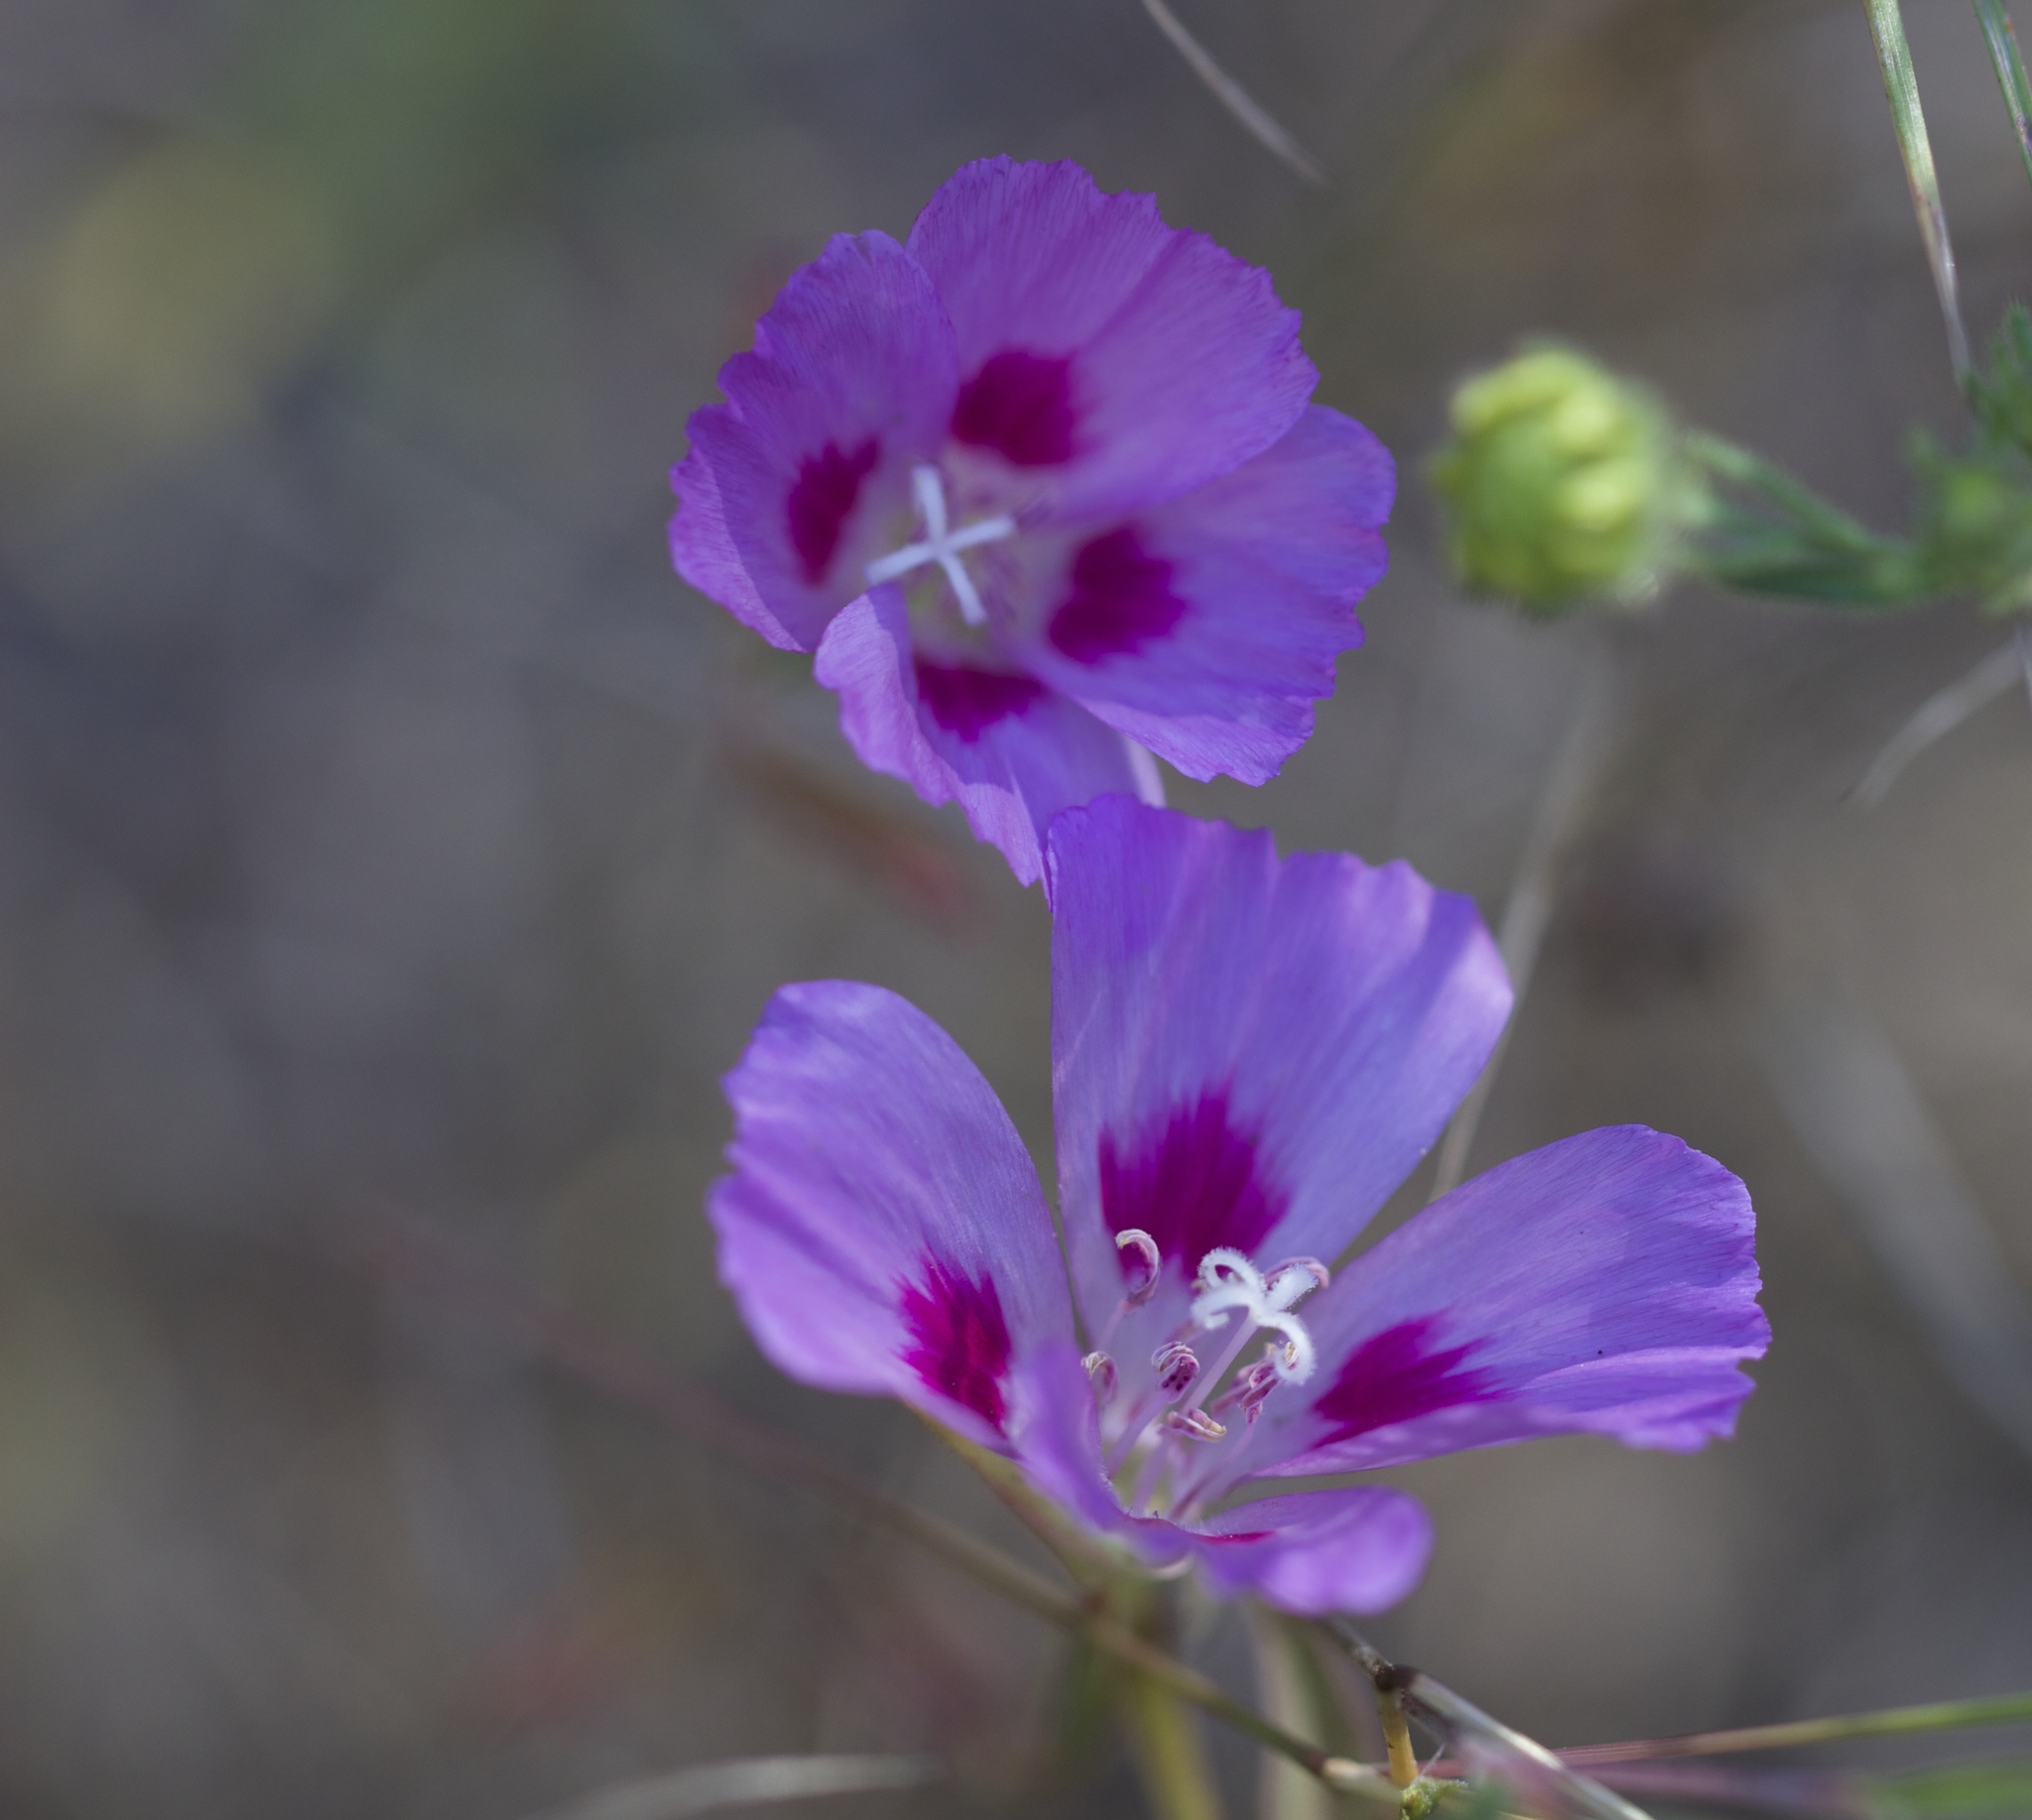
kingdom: Plantae
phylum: Tracheophyta
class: Magnoliopsida
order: Myrtales
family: Onagraceae
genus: Clarkia
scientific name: Clarkia amoena
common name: Godetia
